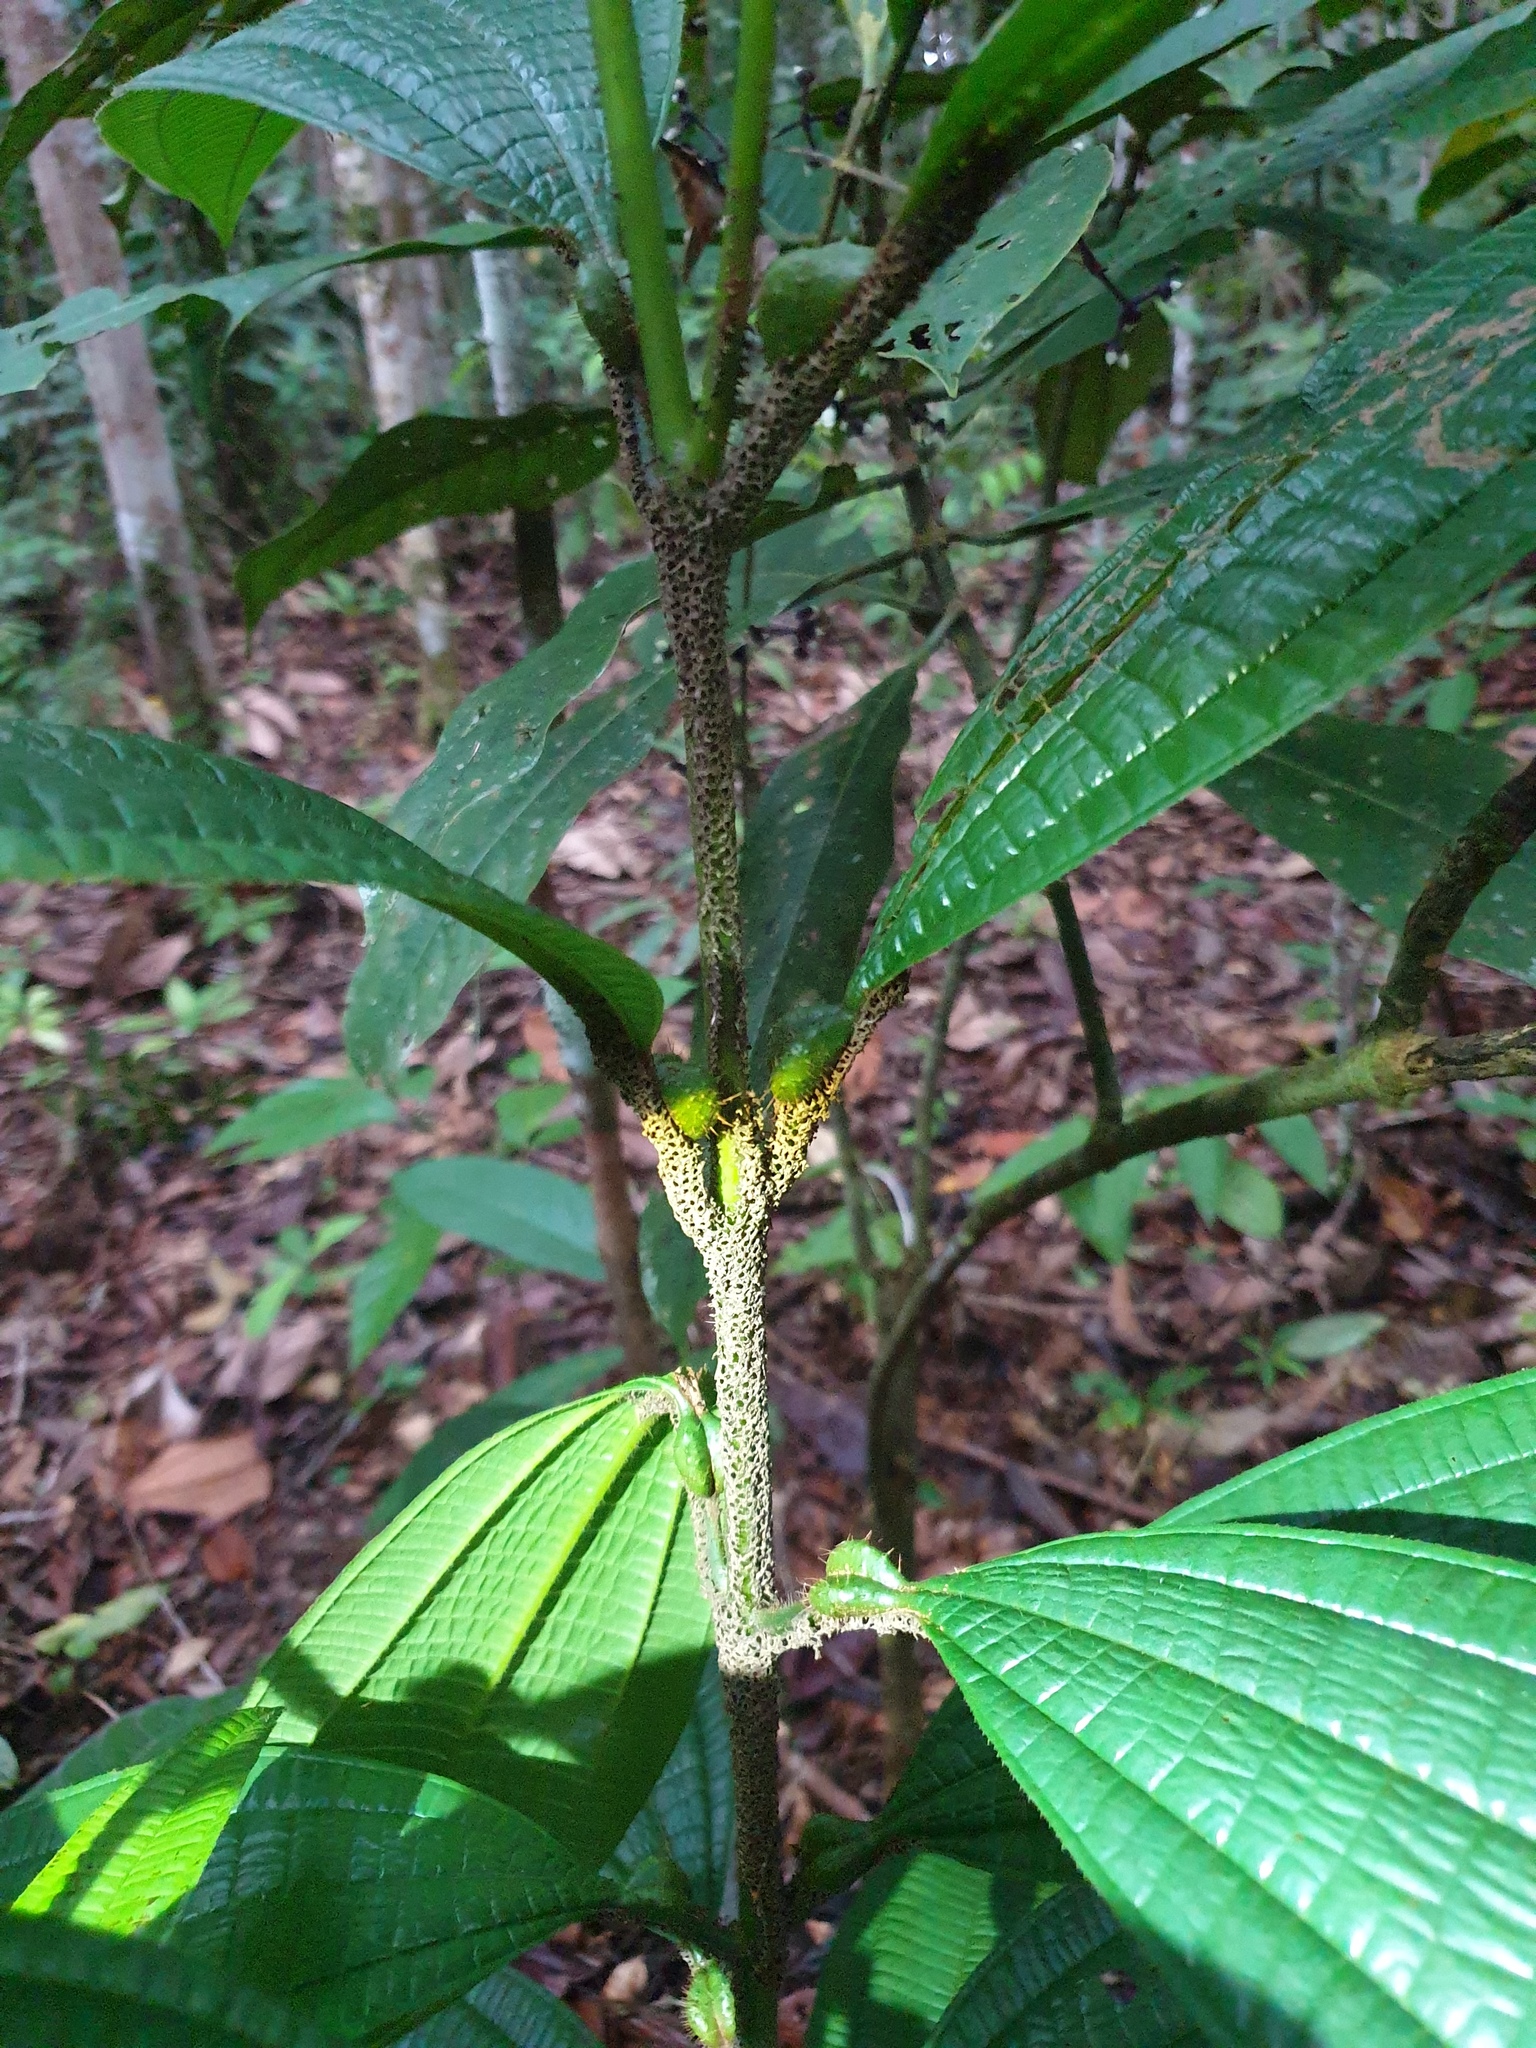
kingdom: Animalia
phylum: Arthropoda
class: Insecta
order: Hymenoptera
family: Formicidae
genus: Allomerus
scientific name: Allomerus octoarticulatus
